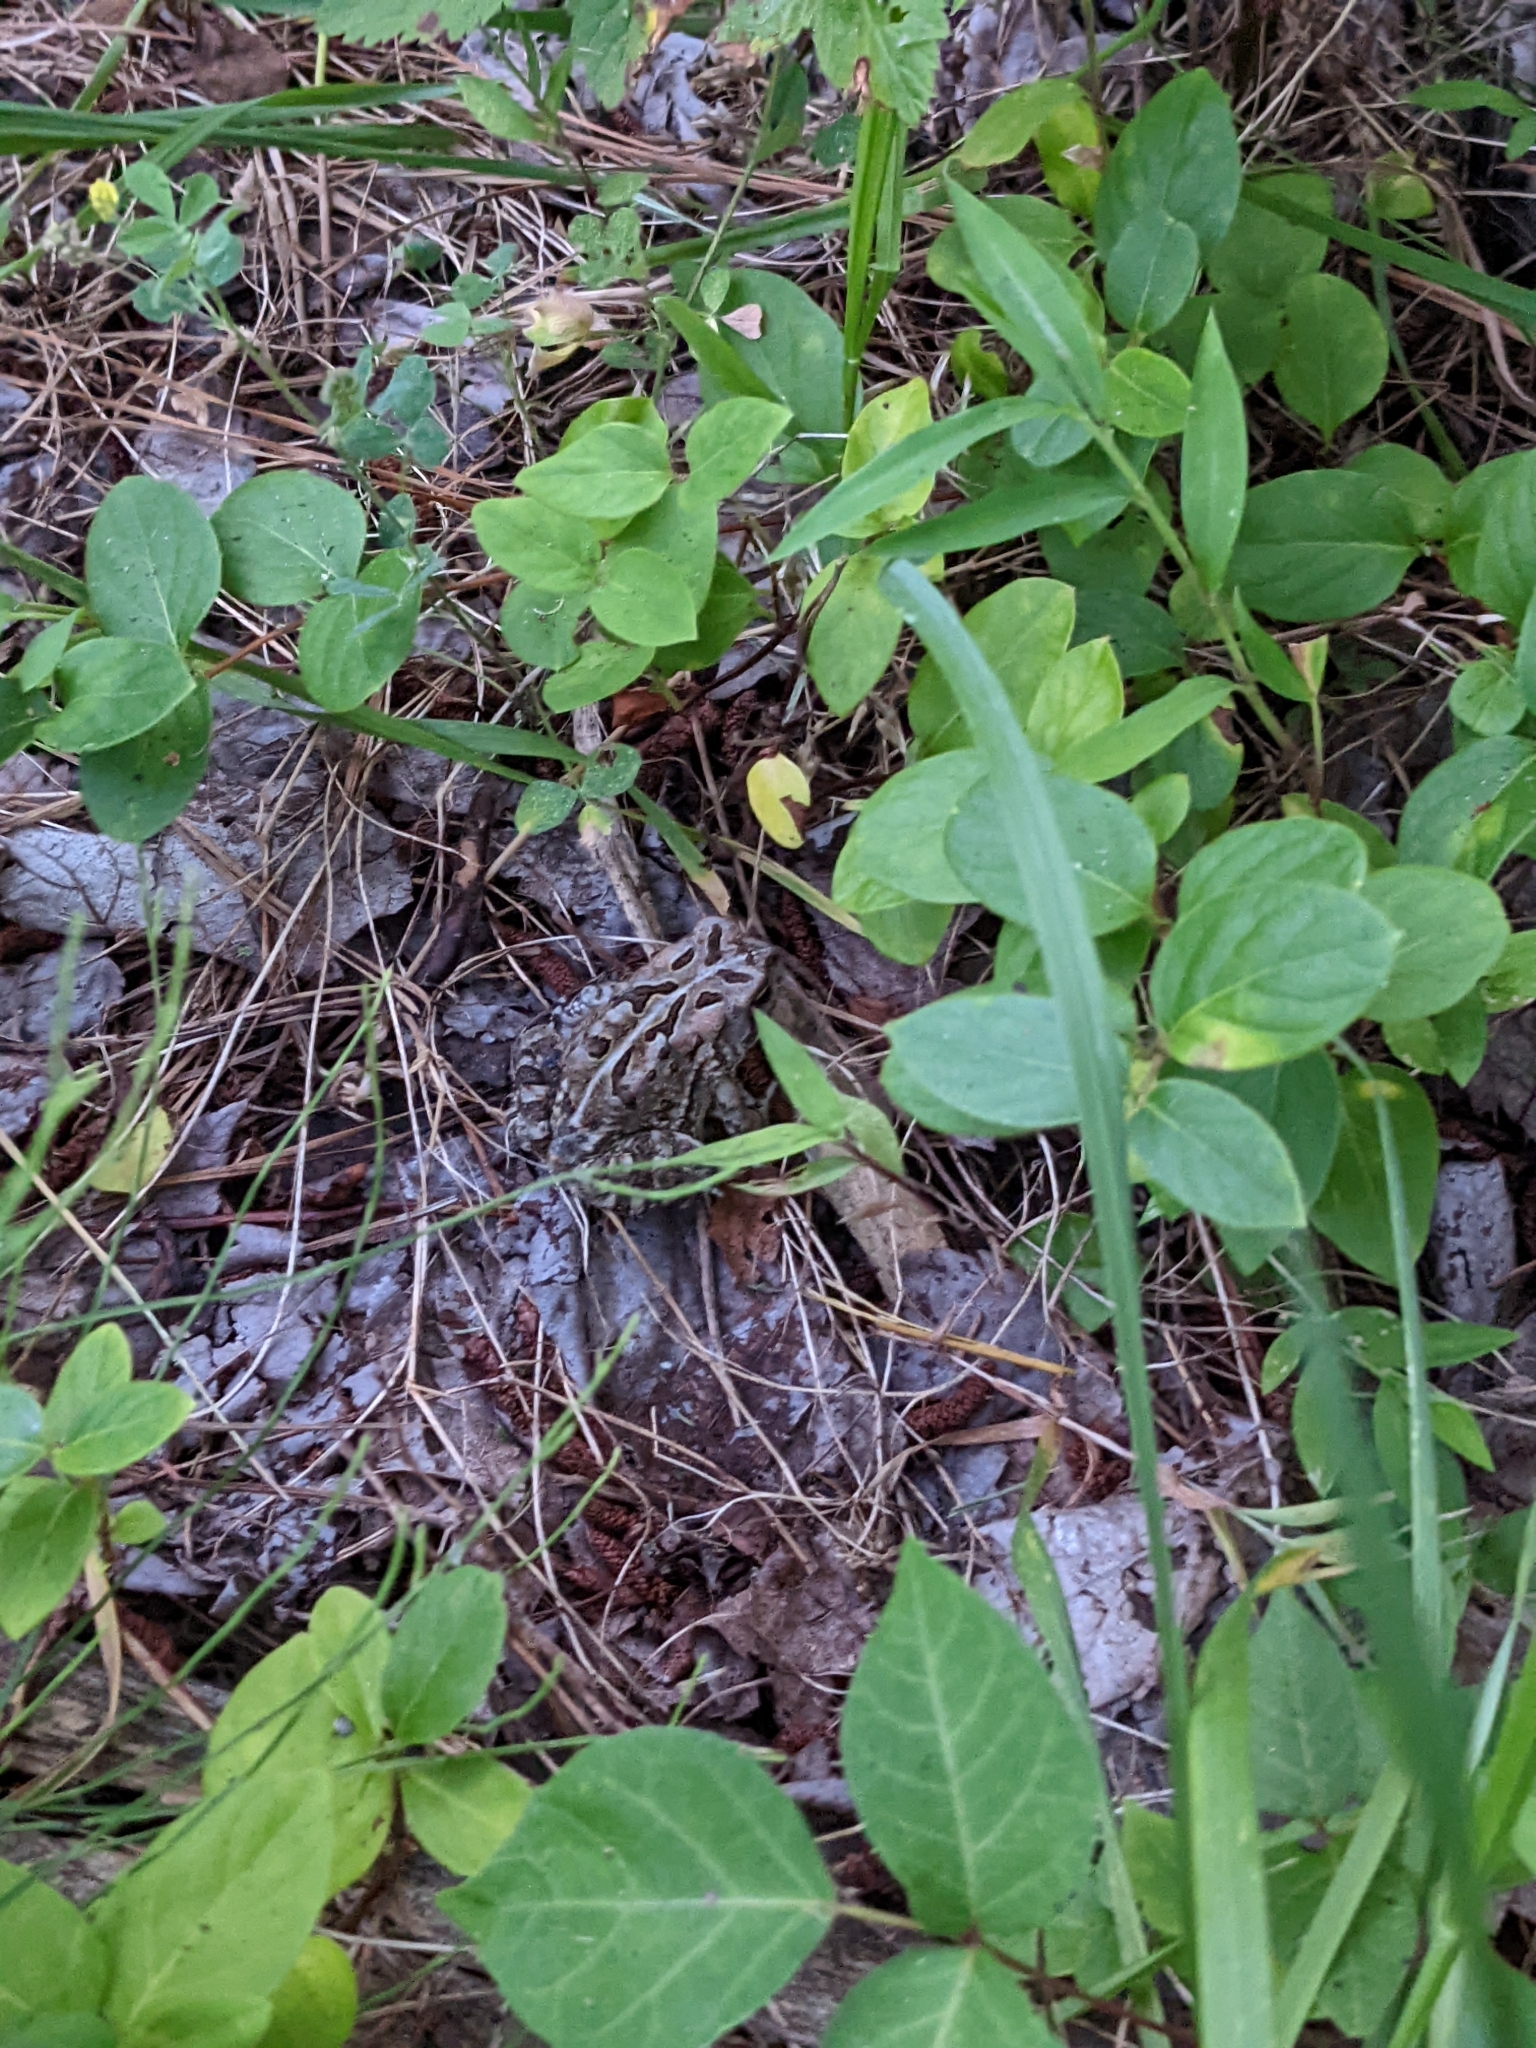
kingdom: Animalia
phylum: Chordata
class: Amphibia
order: Anura
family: Bufonidae
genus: Anaxyrus
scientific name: Anaxyrus fowleri
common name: Fowler's toad
